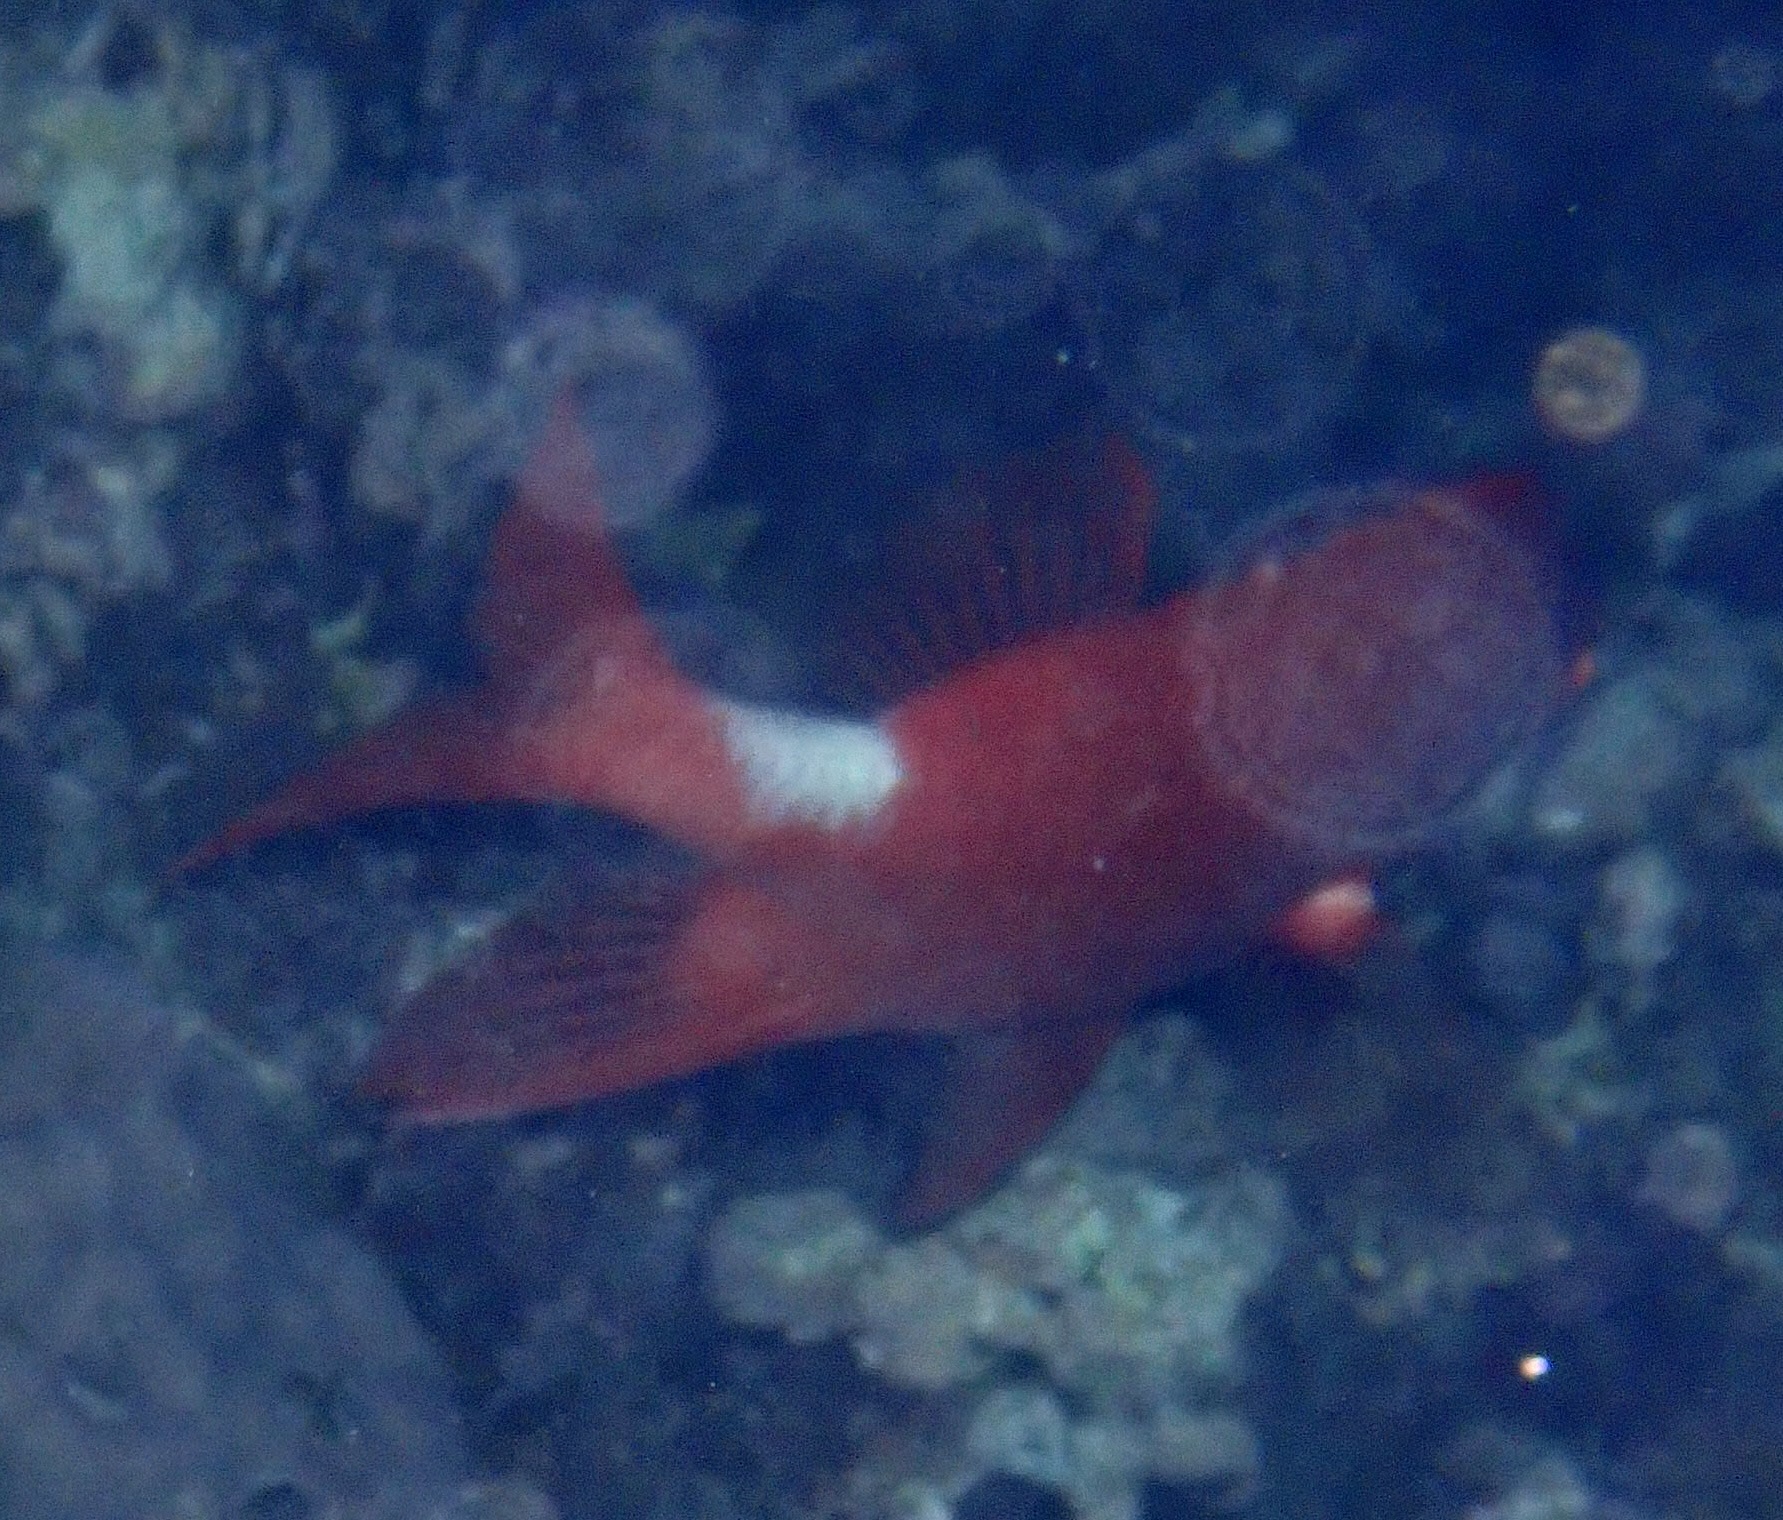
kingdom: Animalia
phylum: Chordata
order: Beryciformes
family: Holocentridae
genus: Sargocentron
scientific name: Sargocentron caudimaculatum
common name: Fanfin soldier
